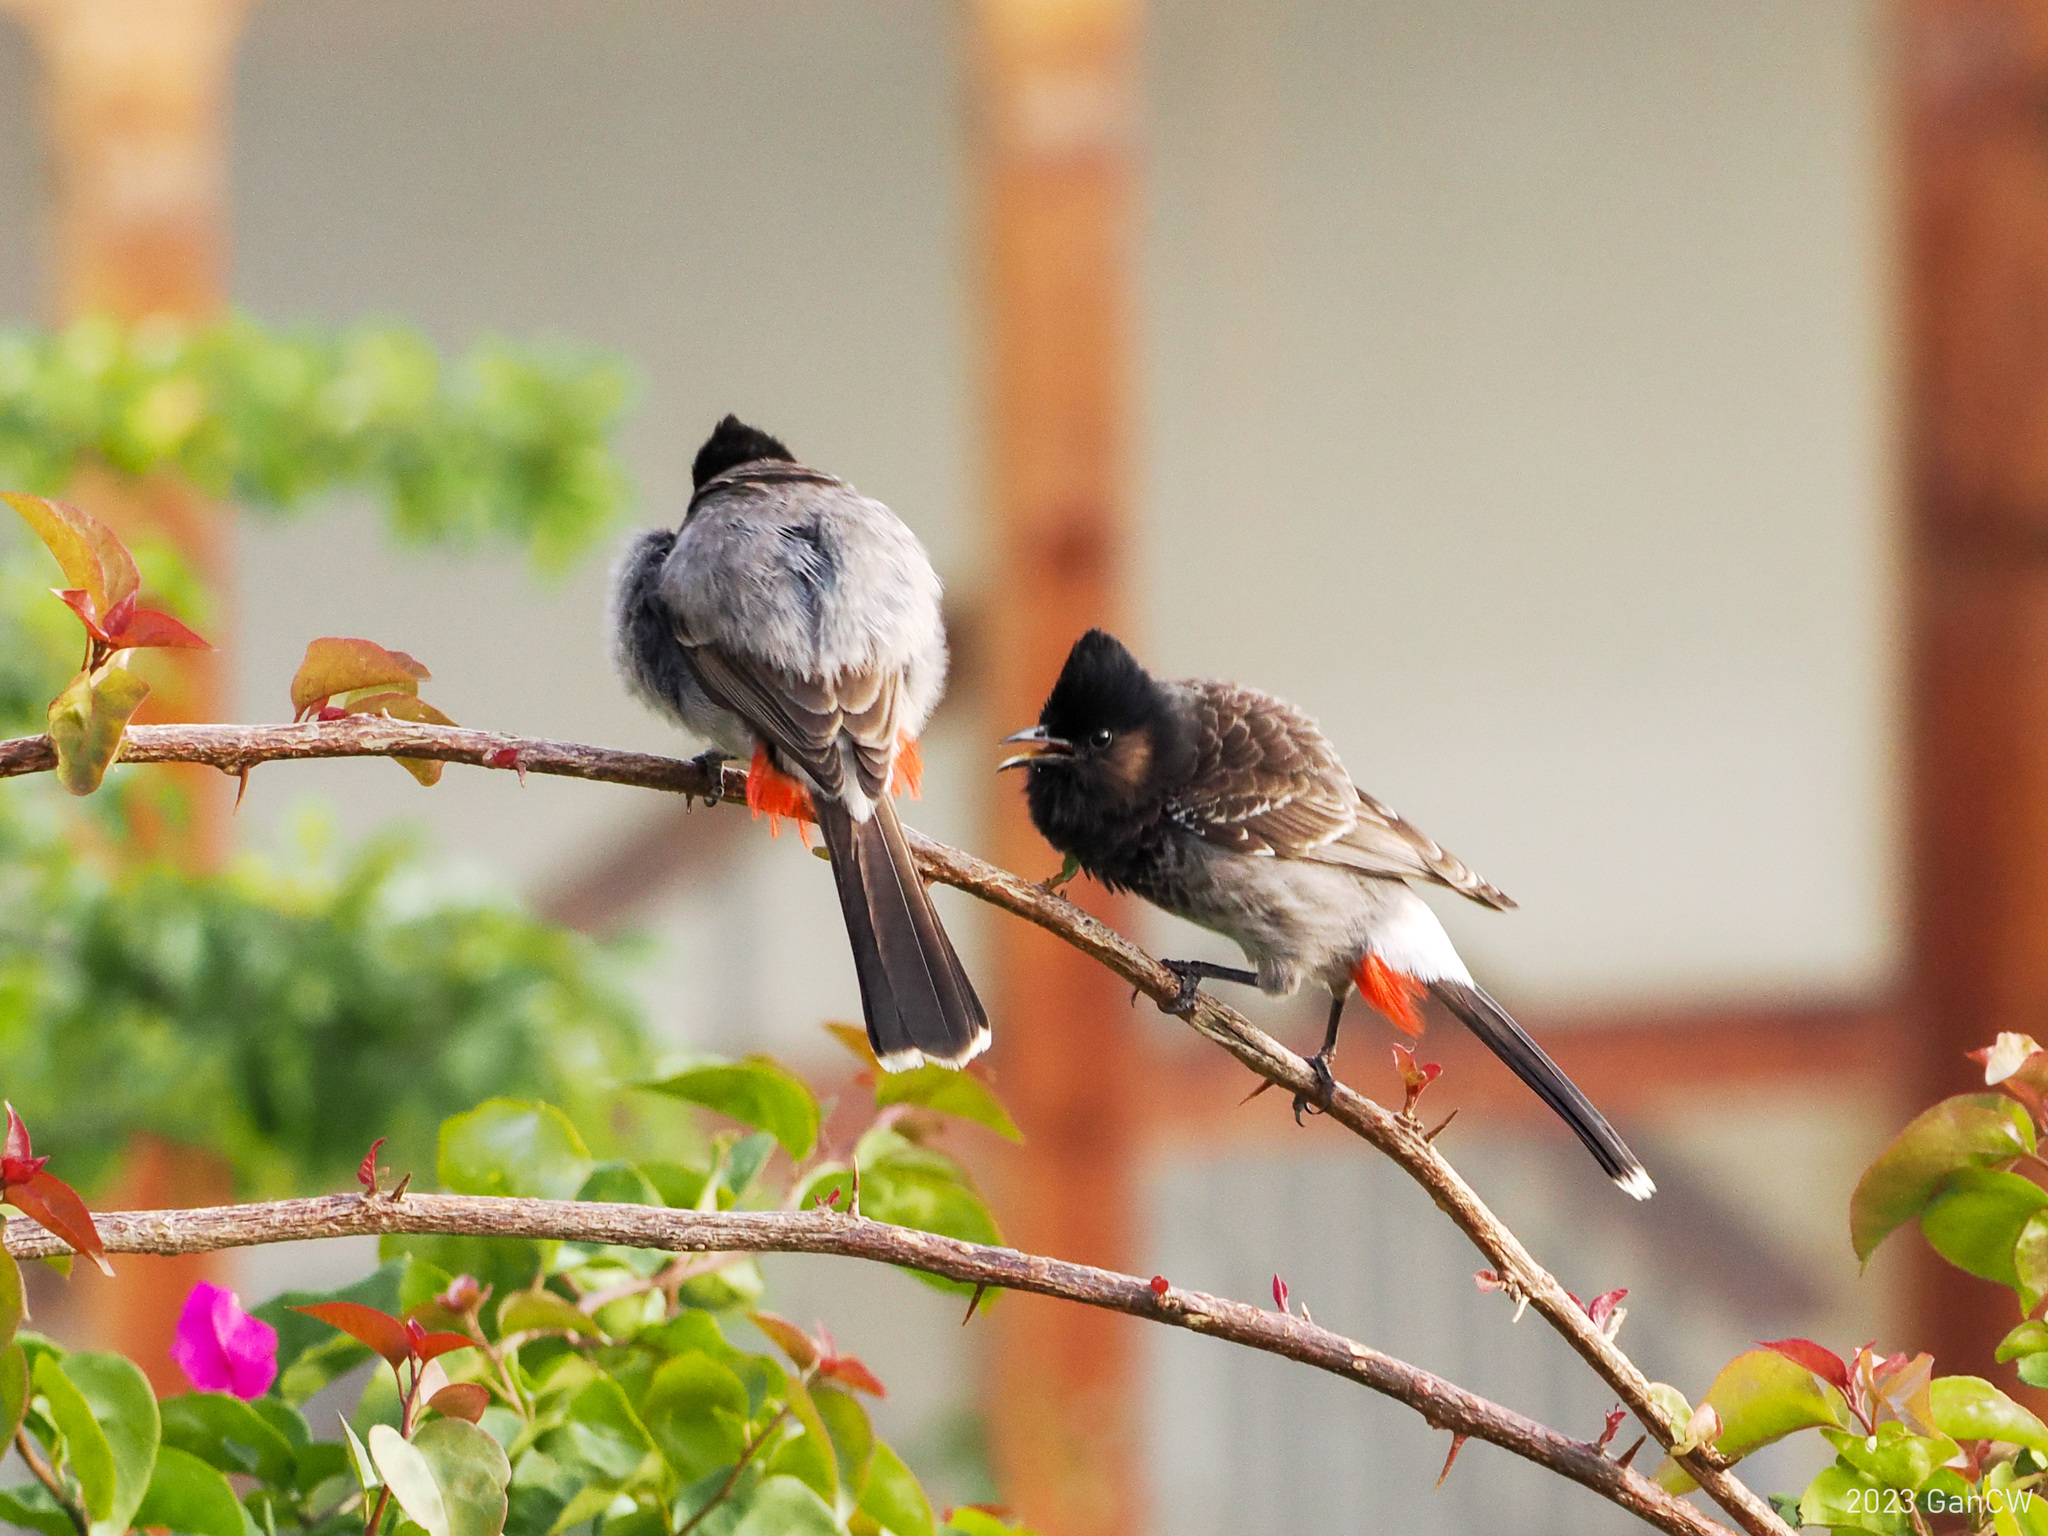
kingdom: Animalia
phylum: Chordata
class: Aves
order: Passeriformes
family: Pycnonotidae
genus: Pycnonotus
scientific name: Pycnonotus cafer
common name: Red-vented bulbul
